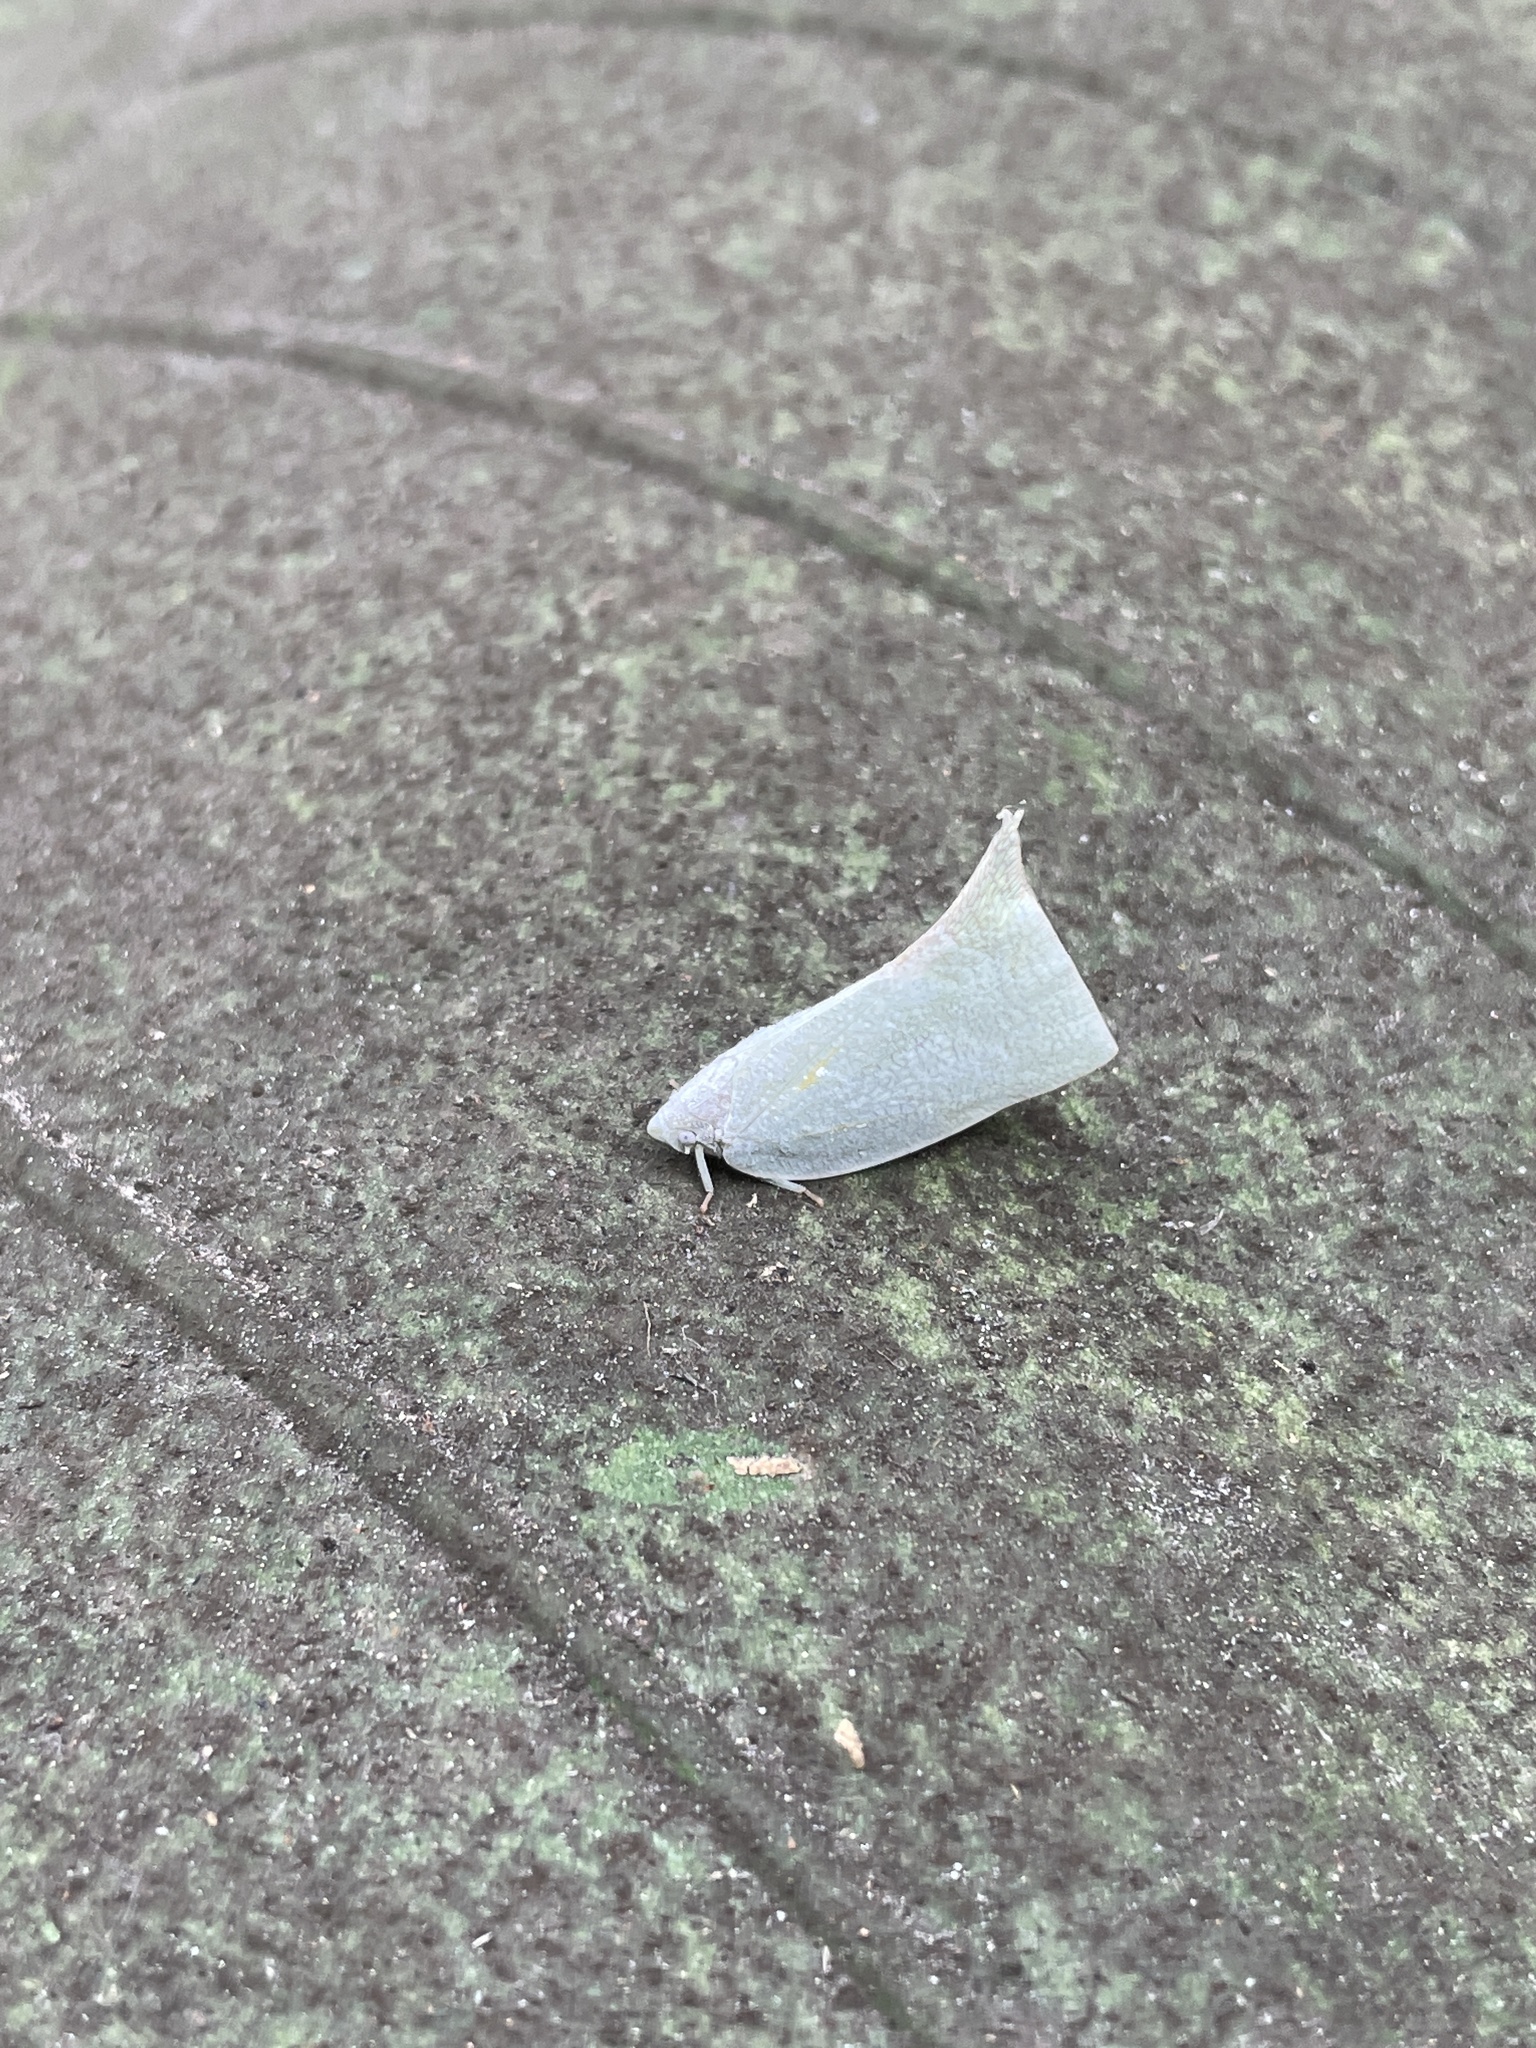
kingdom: Animalia
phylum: Arthropoda
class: Insecta
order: Hemiptera
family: Flatidae
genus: Lawana
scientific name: Lawana imitata
